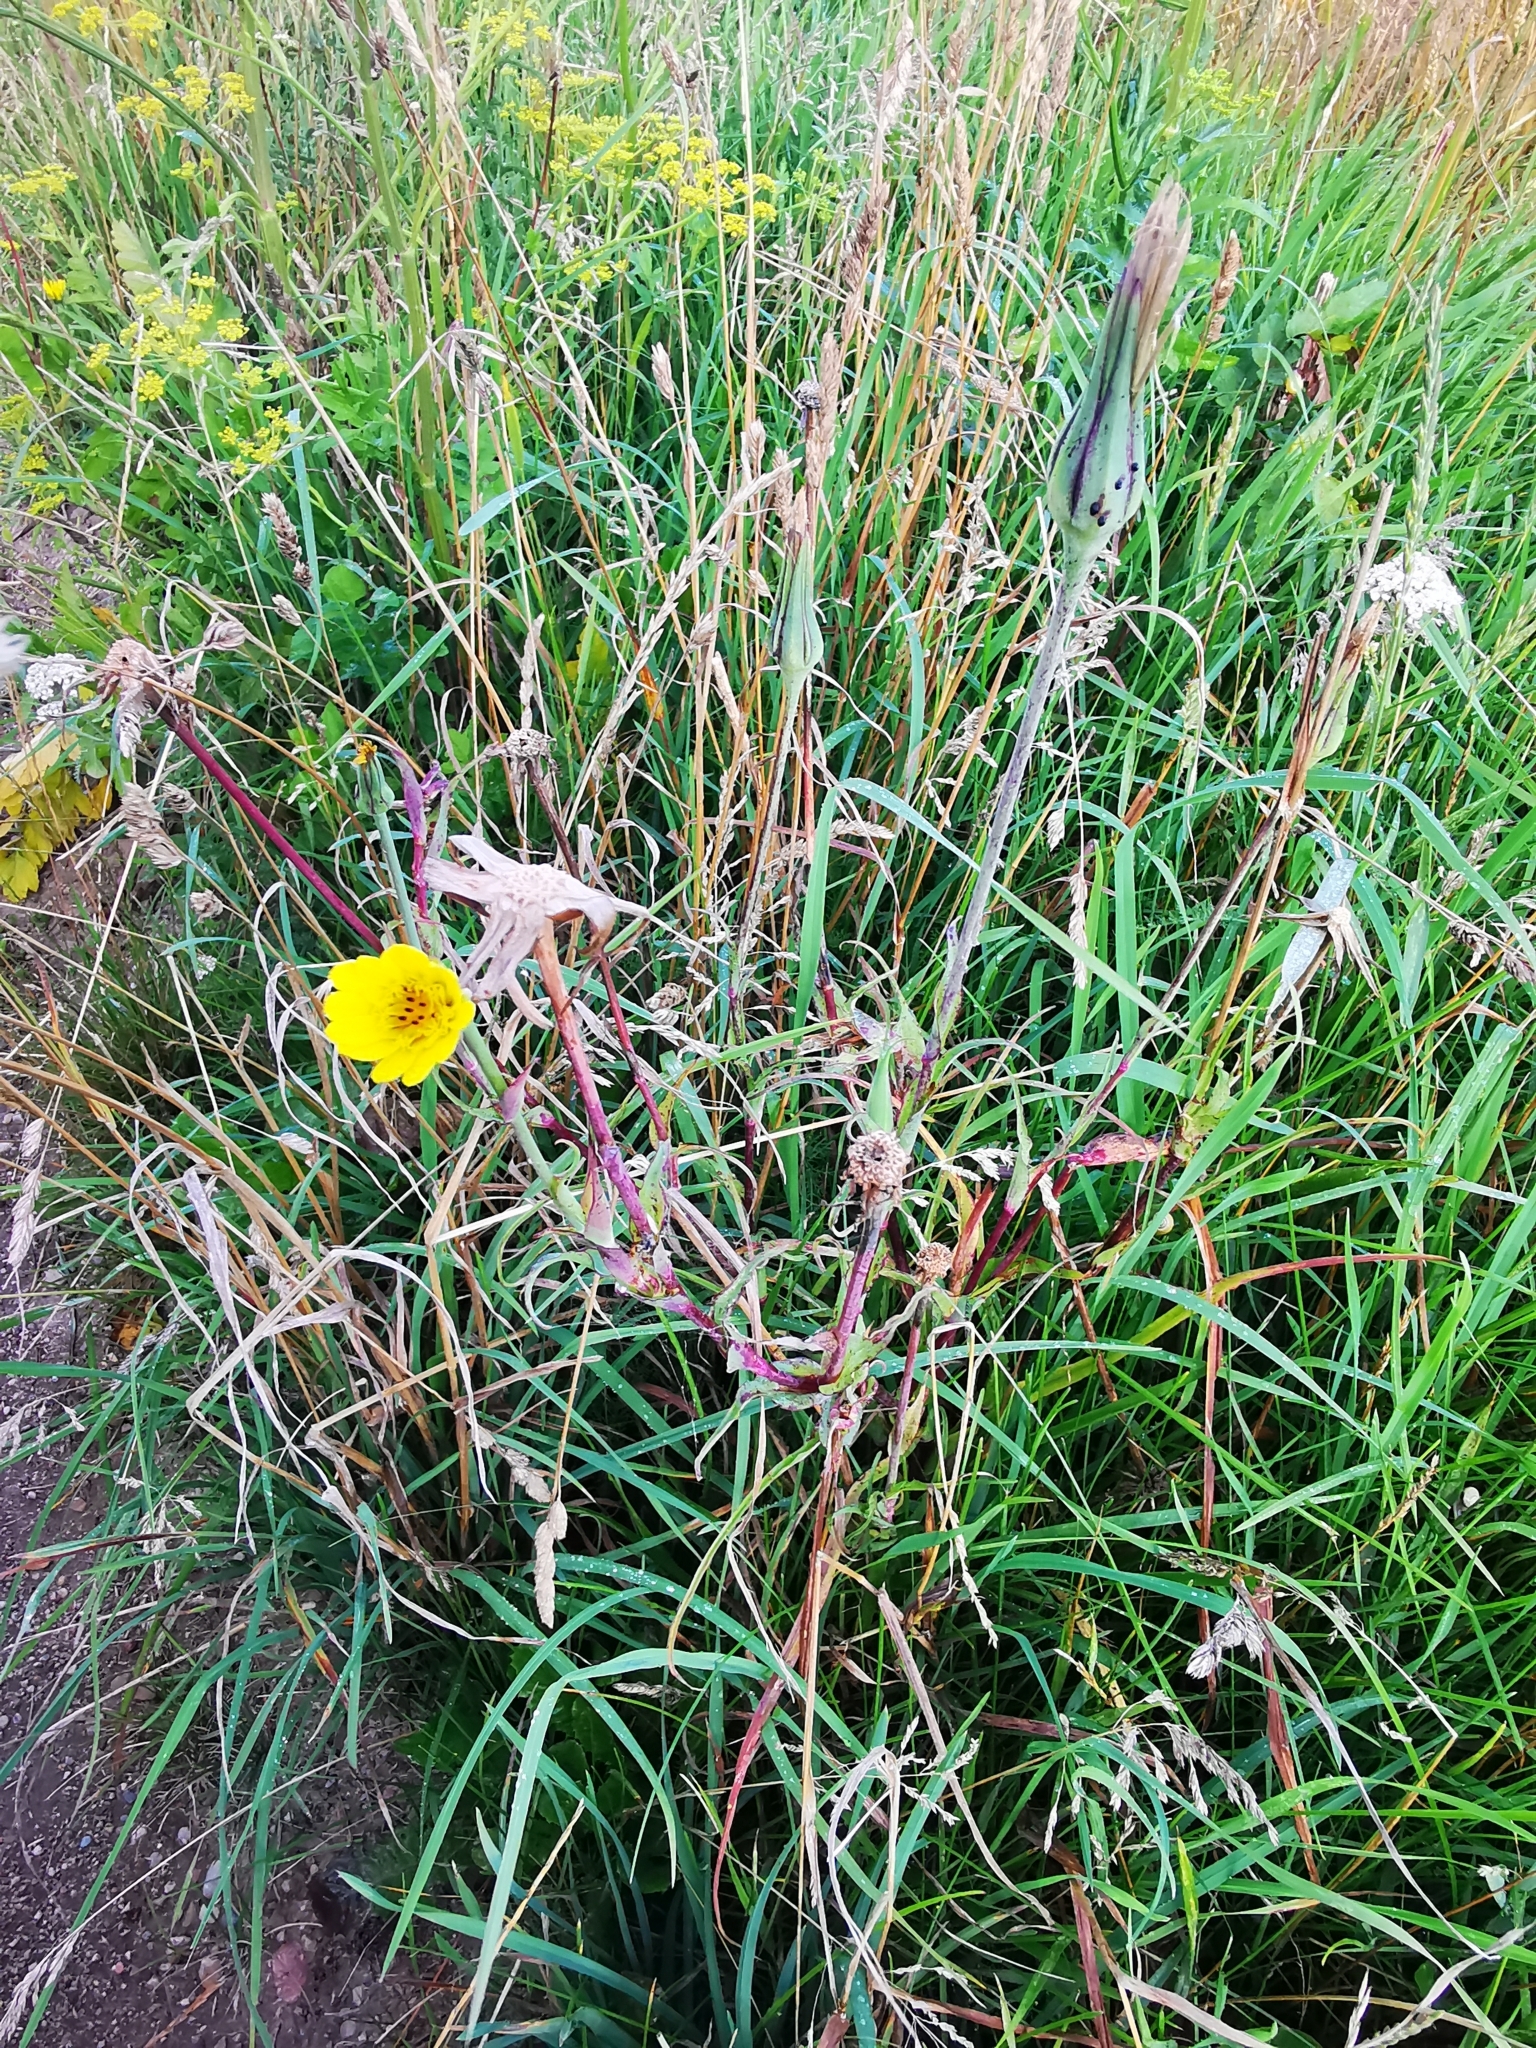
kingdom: Plantae
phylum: Tracheophyta
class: Magnoliopsida
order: Asterales
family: Asteraceae
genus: Tragopogon
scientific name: Tragopogon pratensis
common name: Goat's-beard
